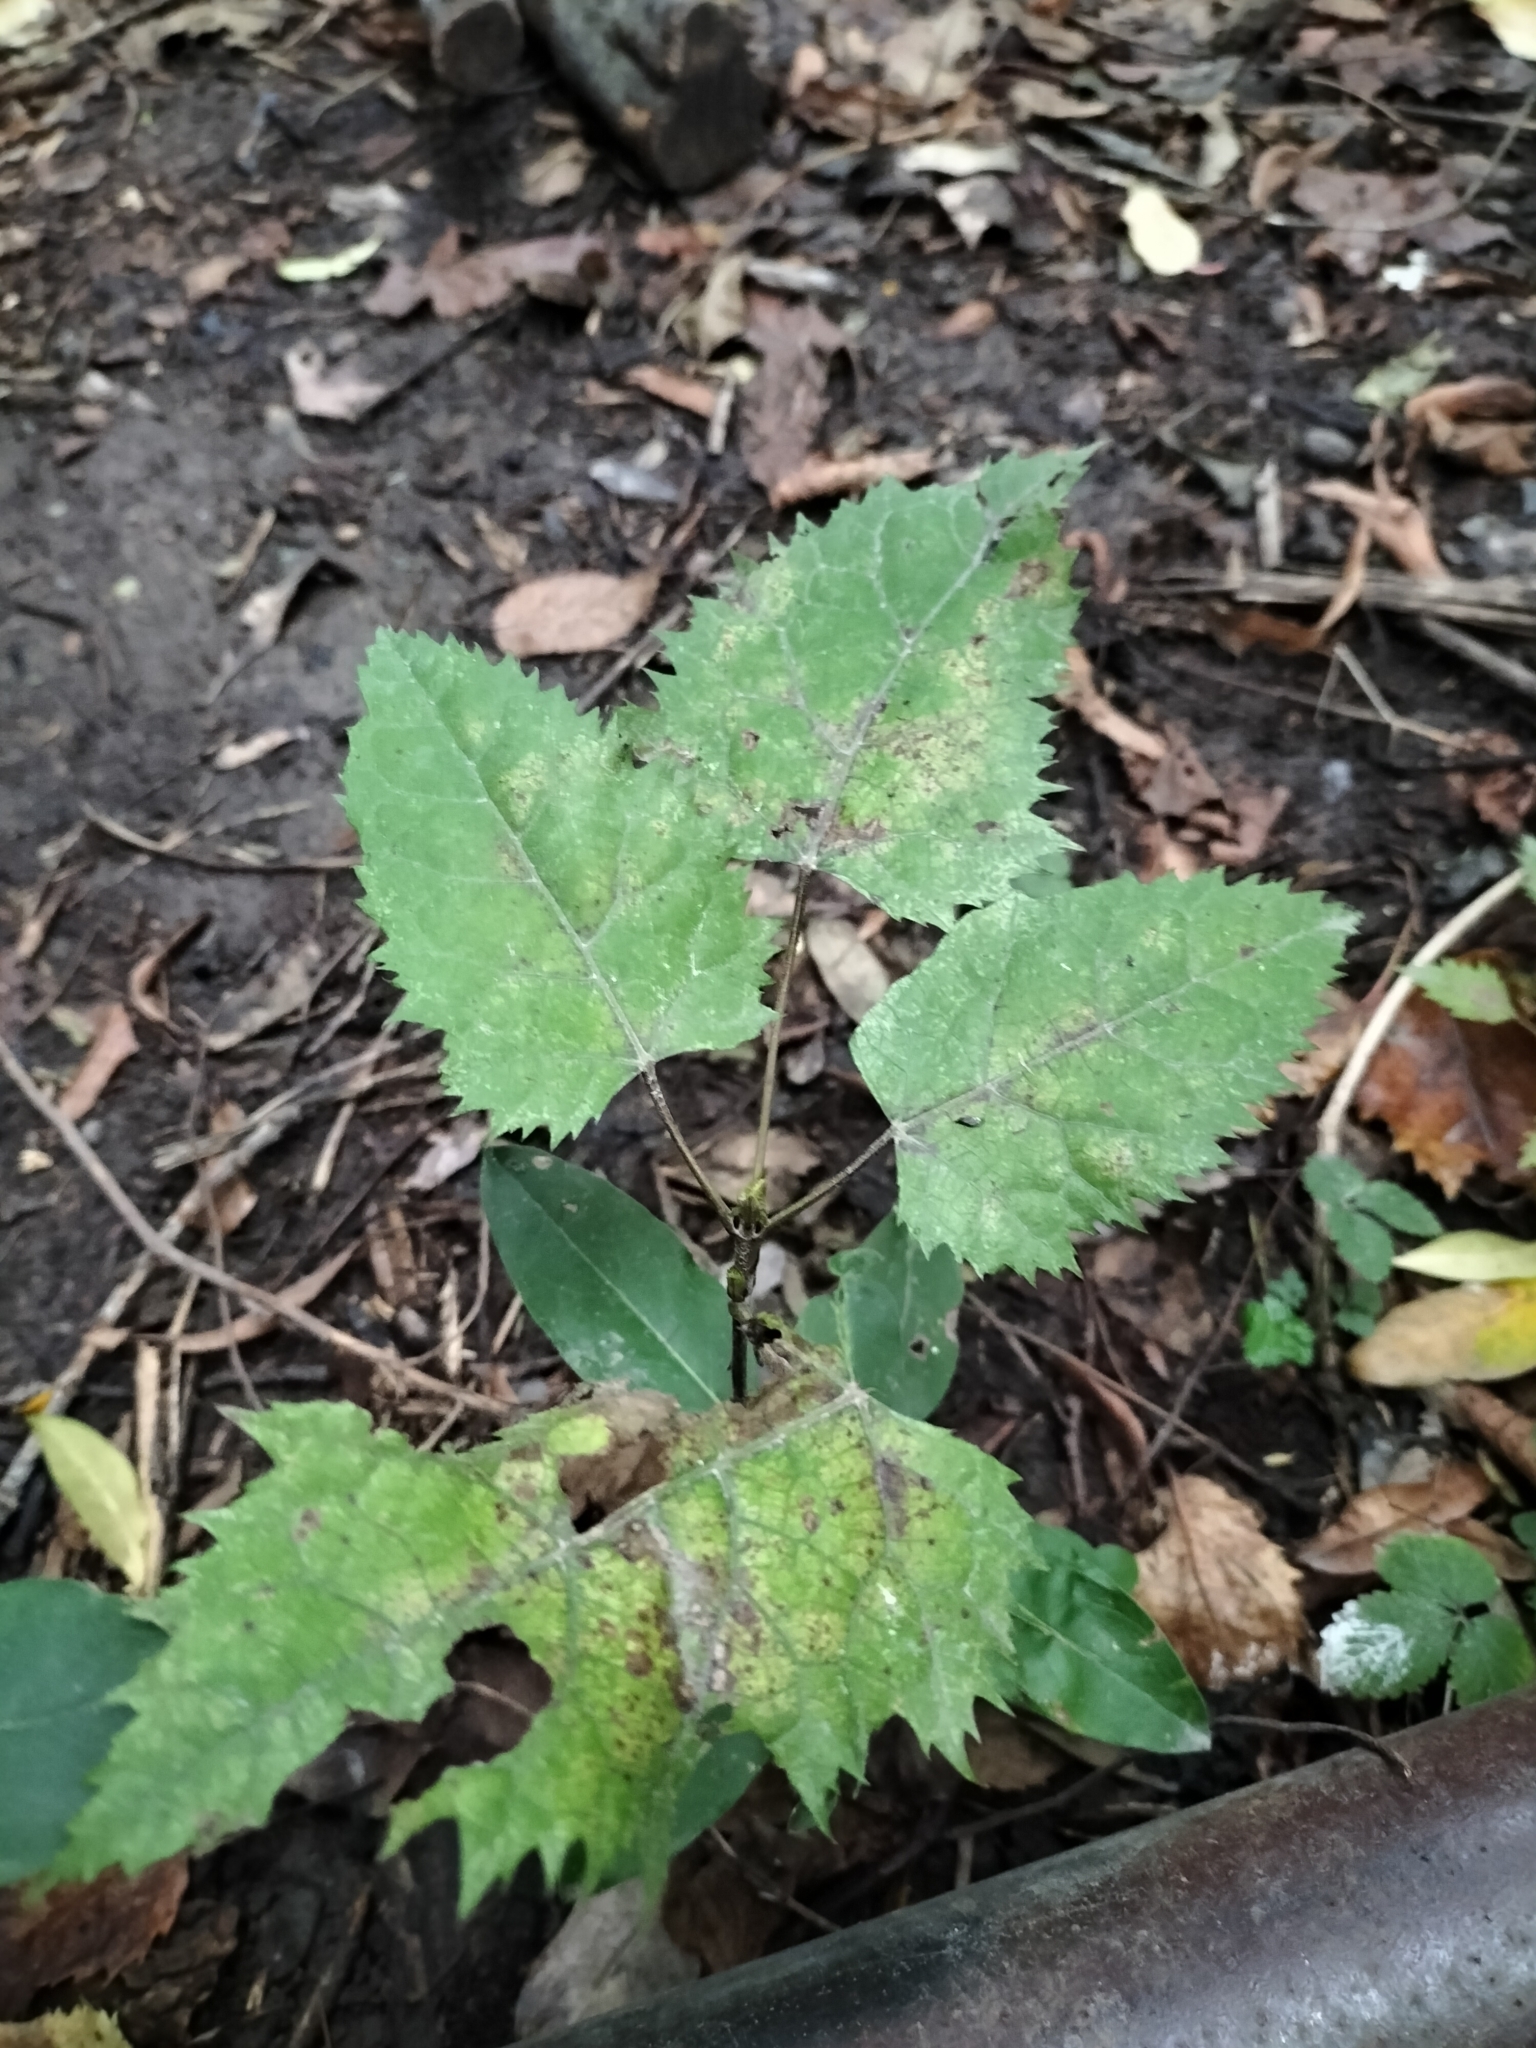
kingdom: Plantae
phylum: Tracheophyta
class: Magnoliopsida
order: Oxalidales
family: Elaeocarpaceae
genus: Aristotelia
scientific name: Aristotelia serrata
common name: New zealand wineberry
